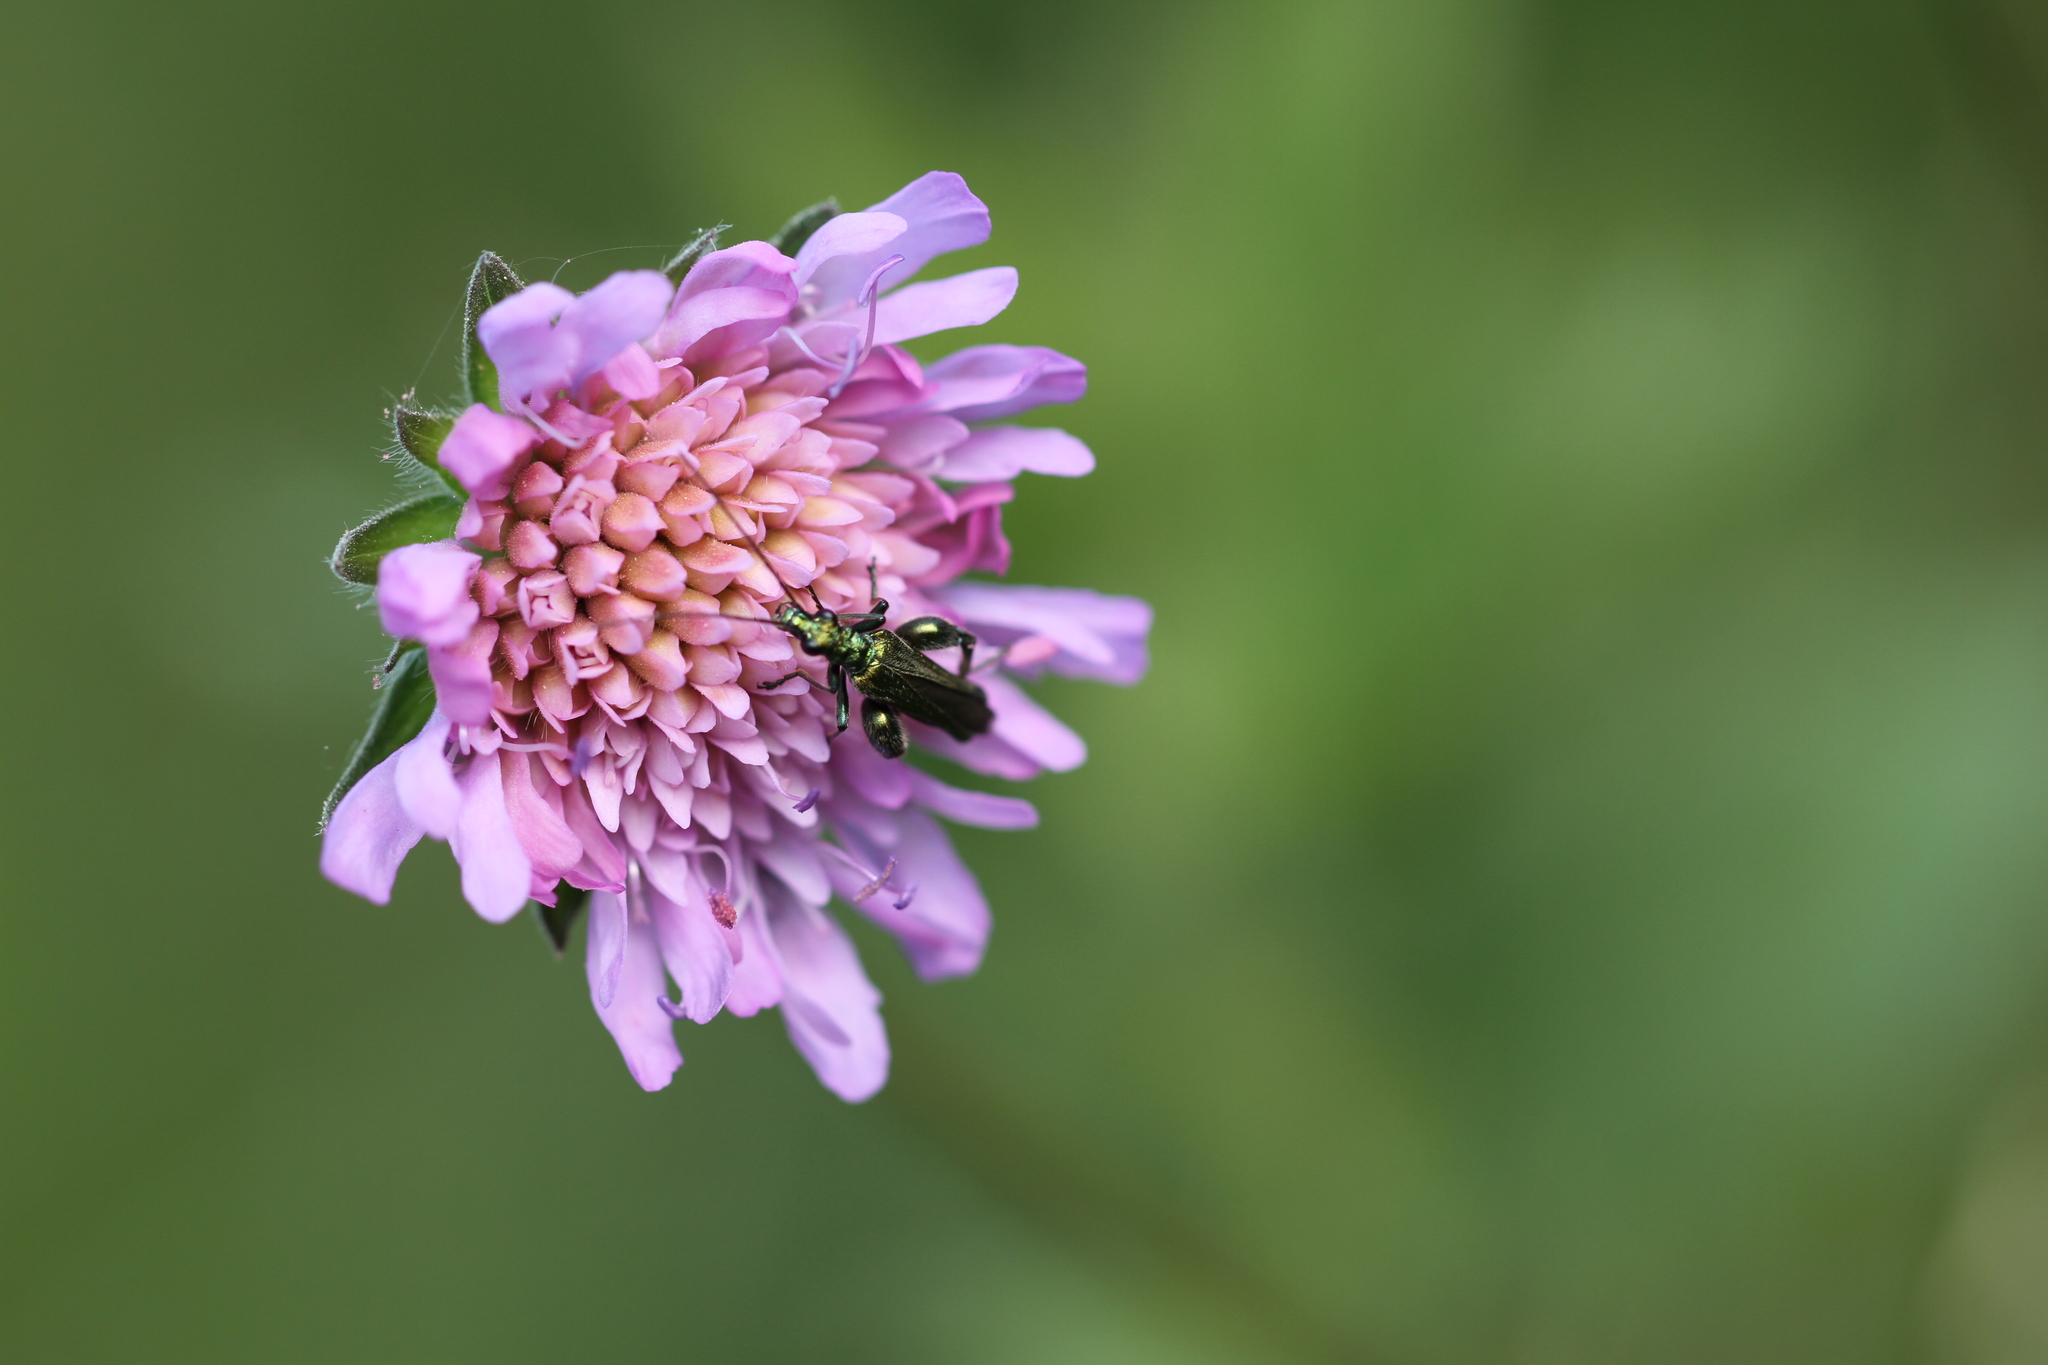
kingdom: Animalia
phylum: Arthropoda
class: Insecta
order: Coleoptera
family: Oedemeridae
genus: Oedemera
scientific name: Oedemera nobilis
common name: Swollen-thighed beetle
